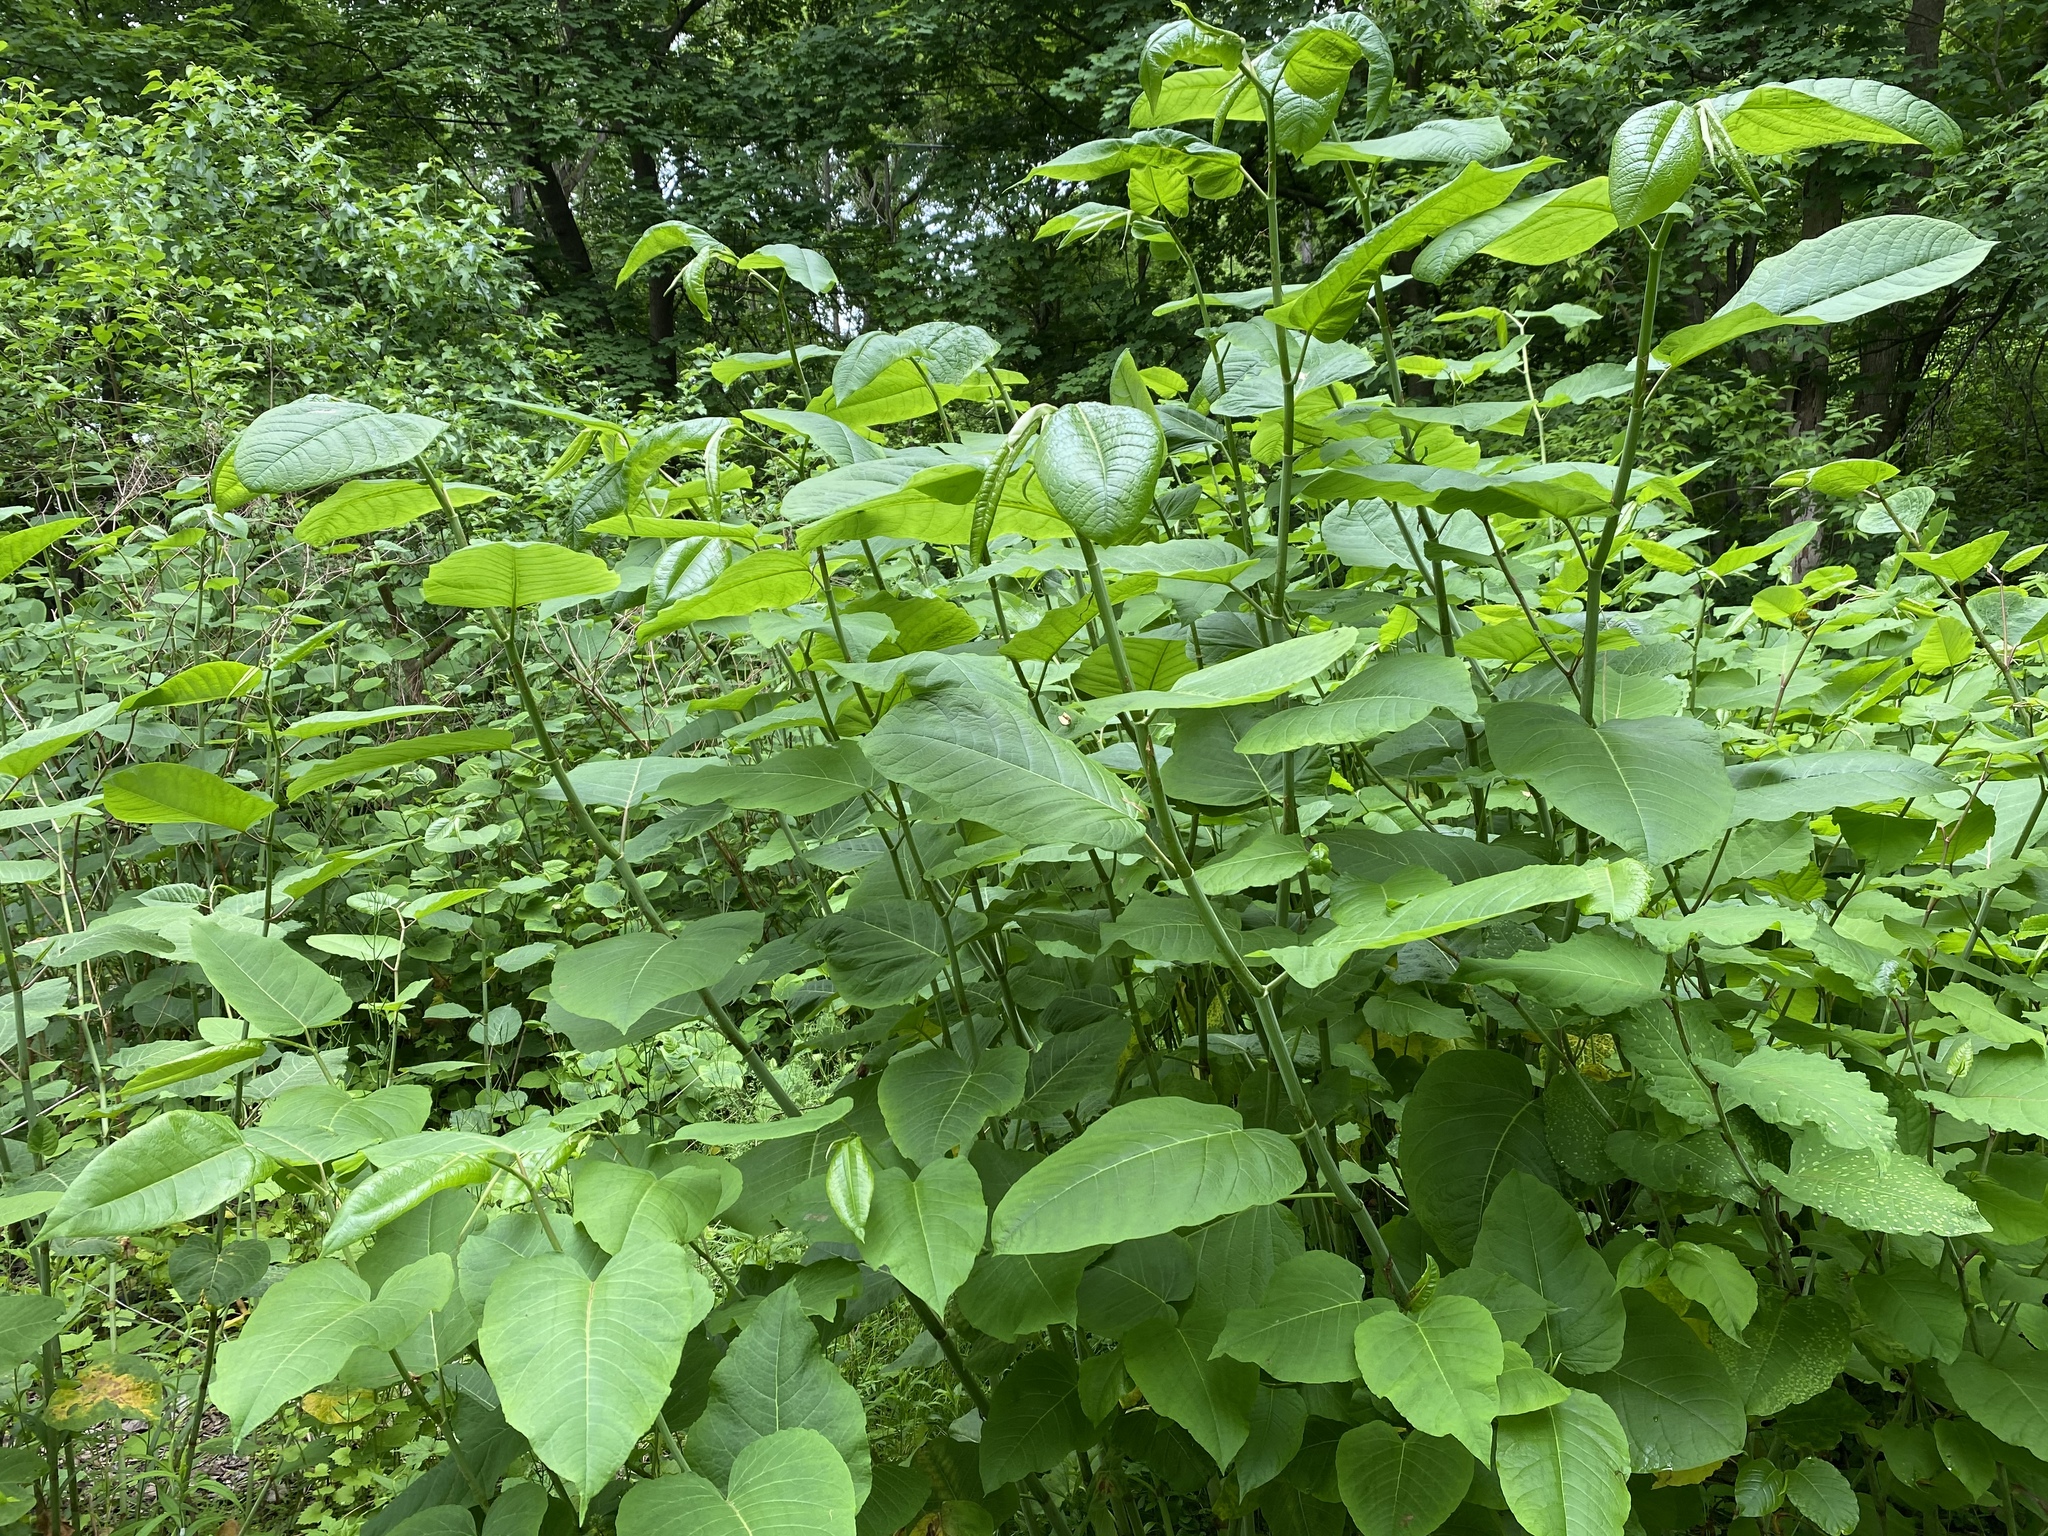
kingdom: Plantae
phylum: Tracheophyta
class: Magnoliopsida
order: Caryophyllales
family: Polygonaceae
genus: Reynoutria
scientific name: Reynoutria sachalinensis
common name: Giant knotweed
